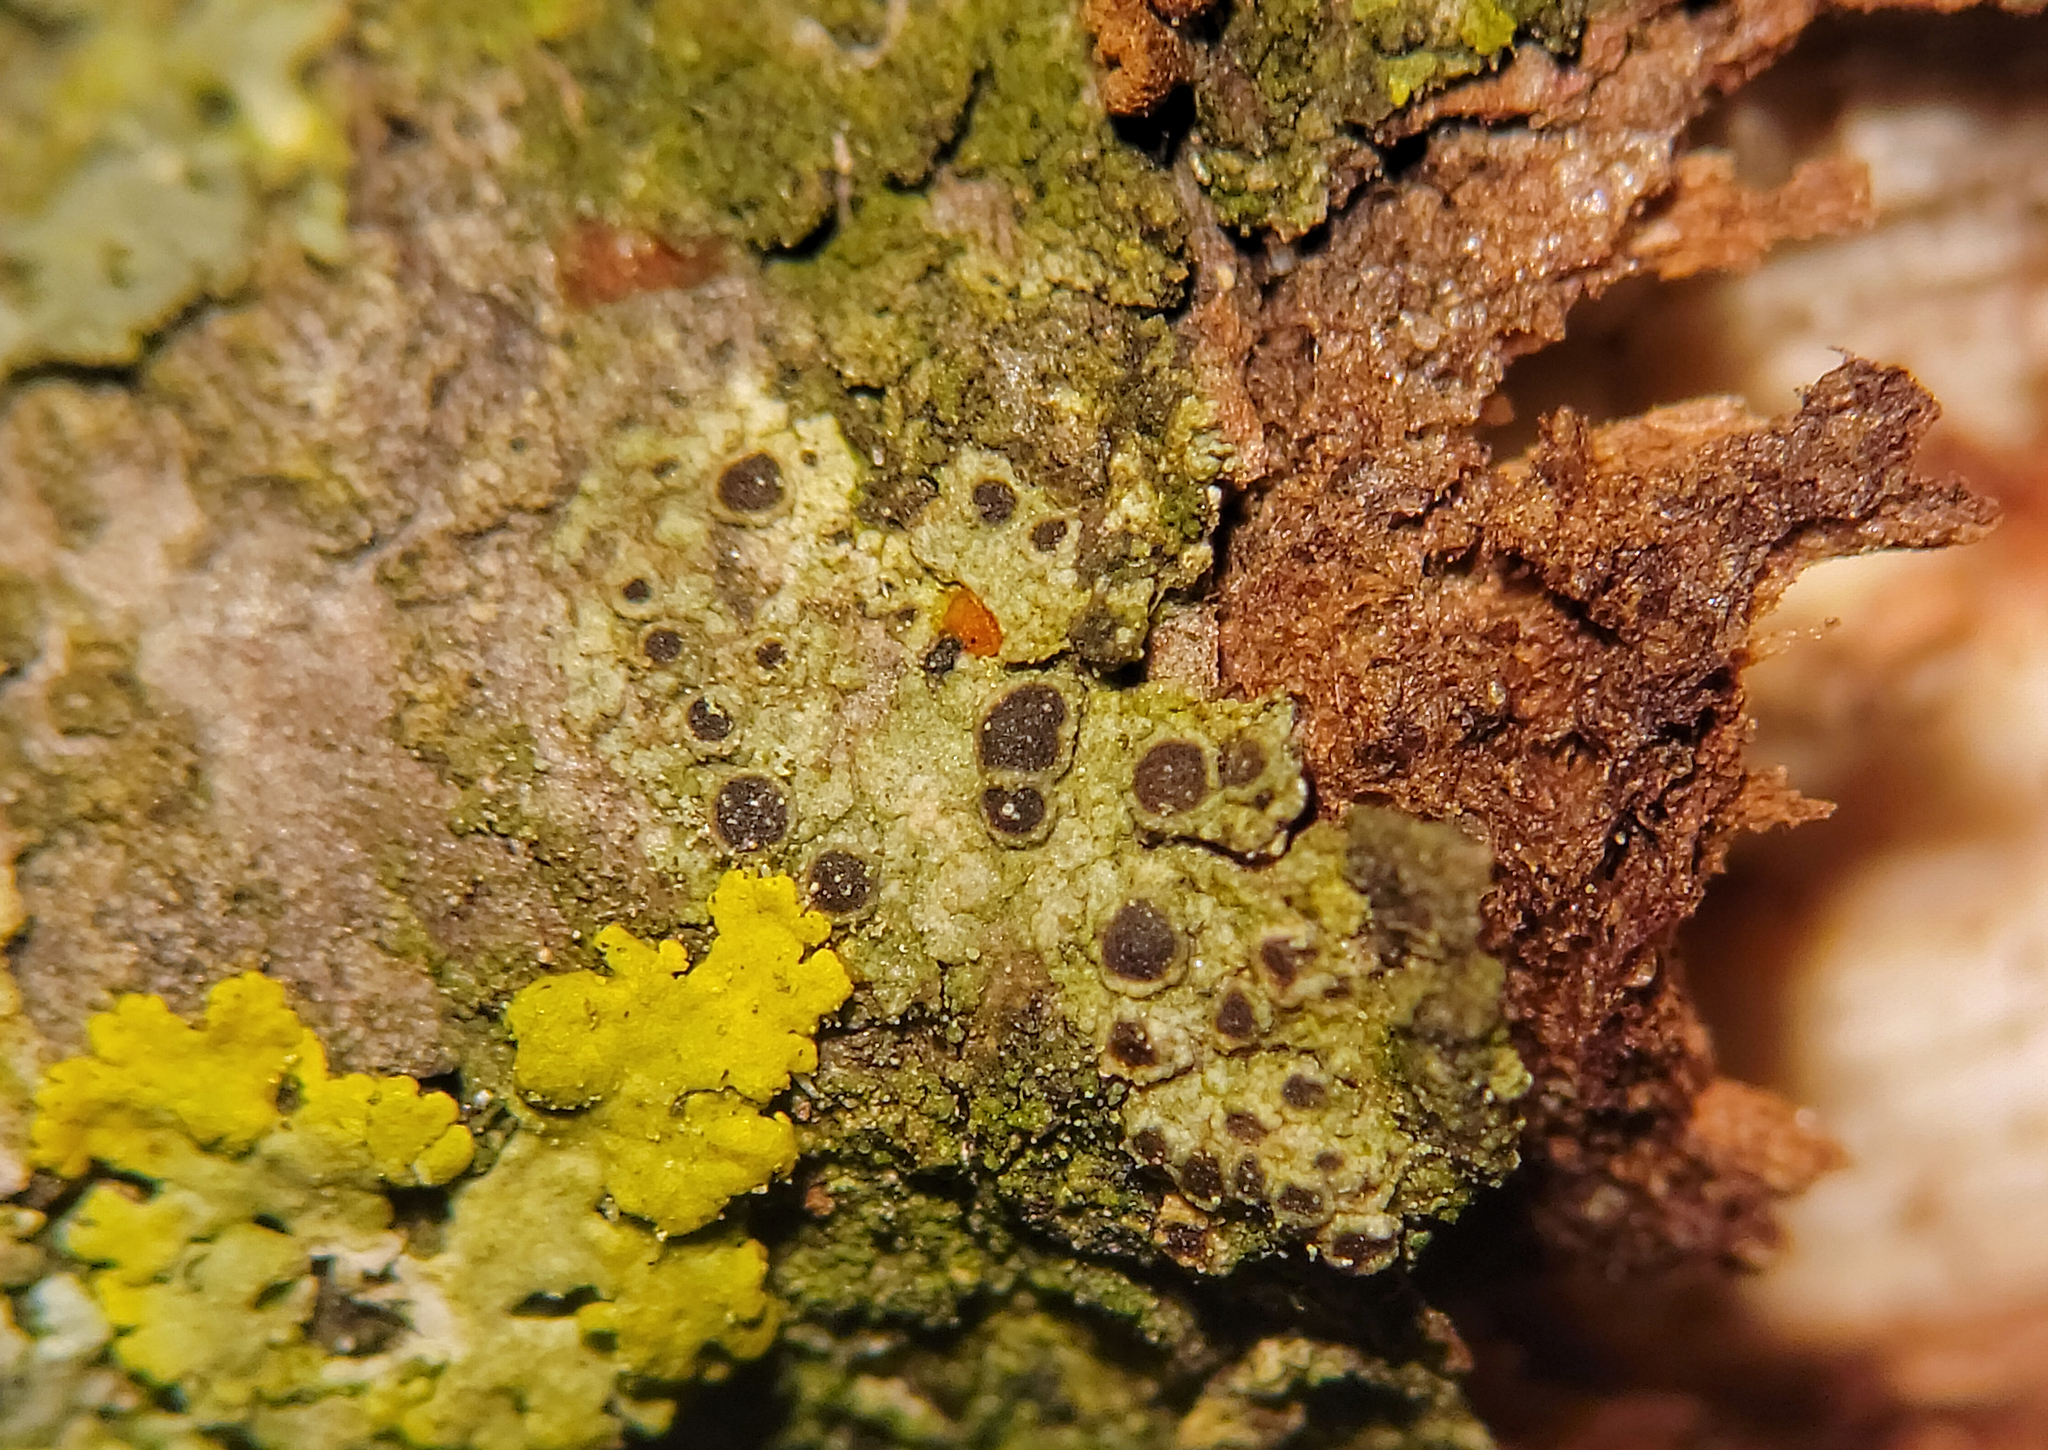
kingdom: Fungi
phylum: Ascomycota
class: Lecanoromycetes
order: Caliciales
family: Physciaceae
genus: Rinodina
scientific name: Rinodina pachysperma
